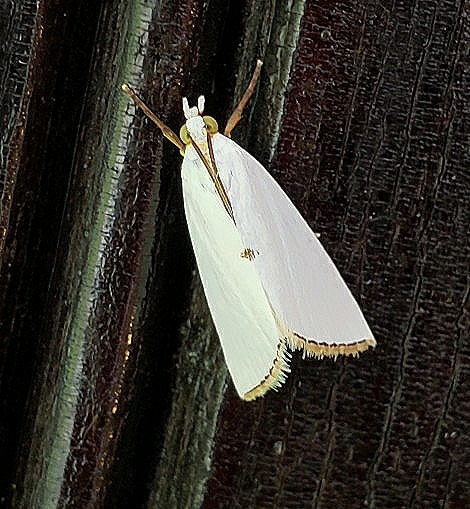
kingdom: Animalia
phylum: Arthropoda
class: Insecta
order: Lepidoptera
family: Crambidae
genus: Argyria
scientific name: Argyria nivalis
